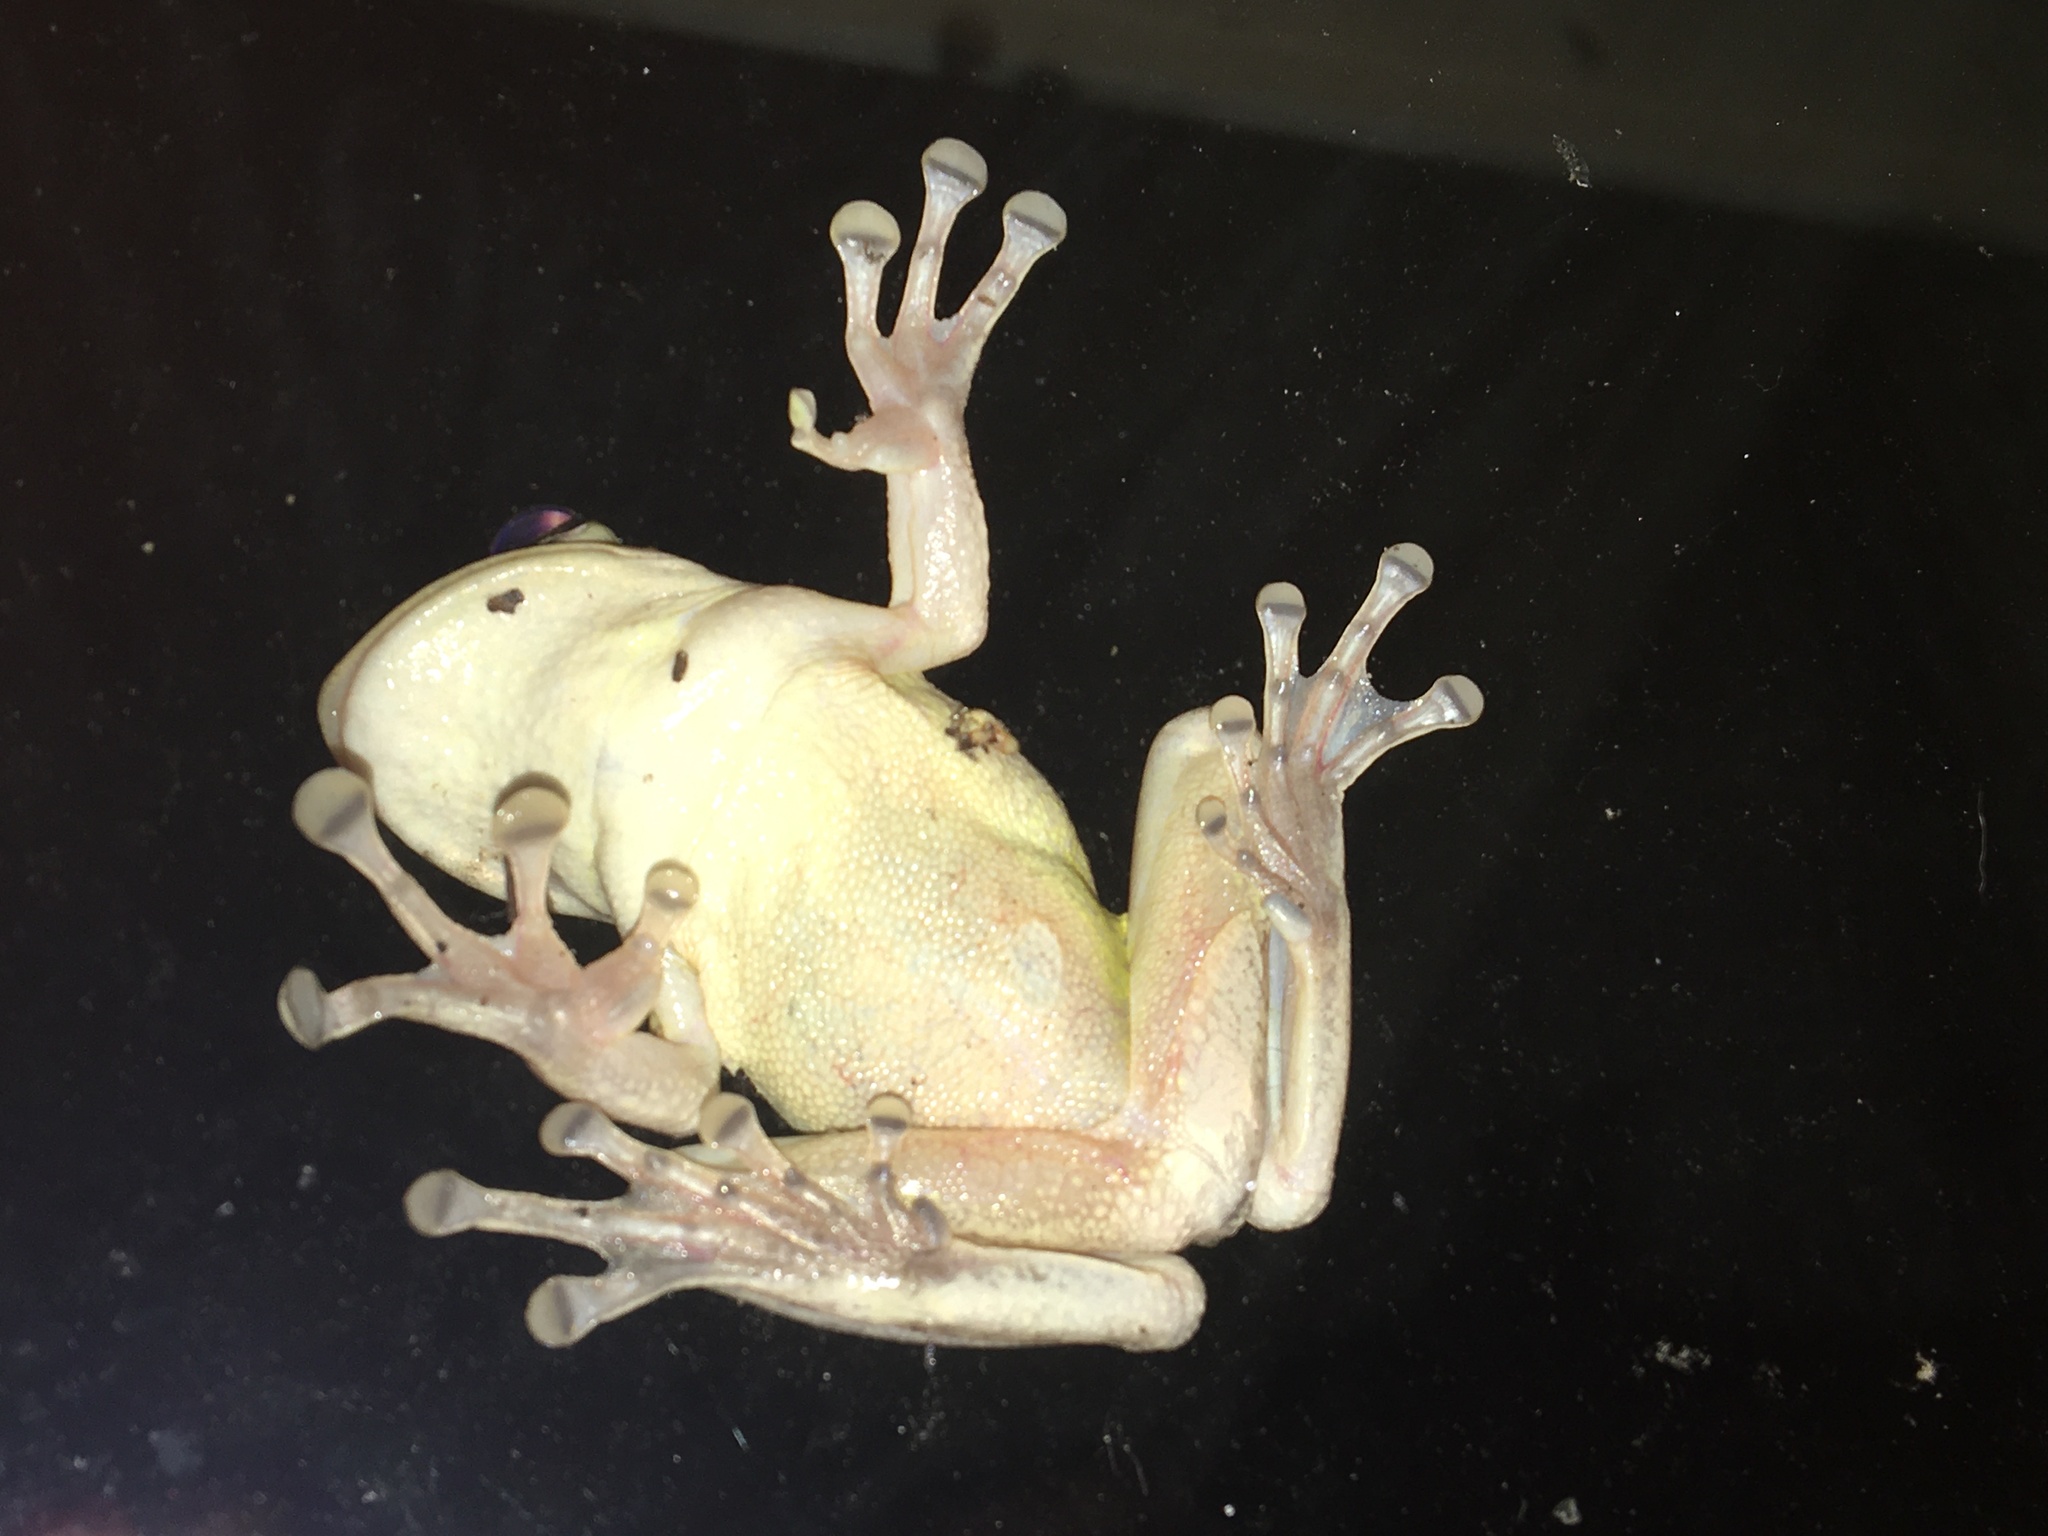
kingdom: Animalia
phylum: Chordata
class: Amphibia
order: Anura
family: Hylidae
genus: Osteopilus
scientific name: Osteopilus septentrionalis
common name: Cuban treefrog
